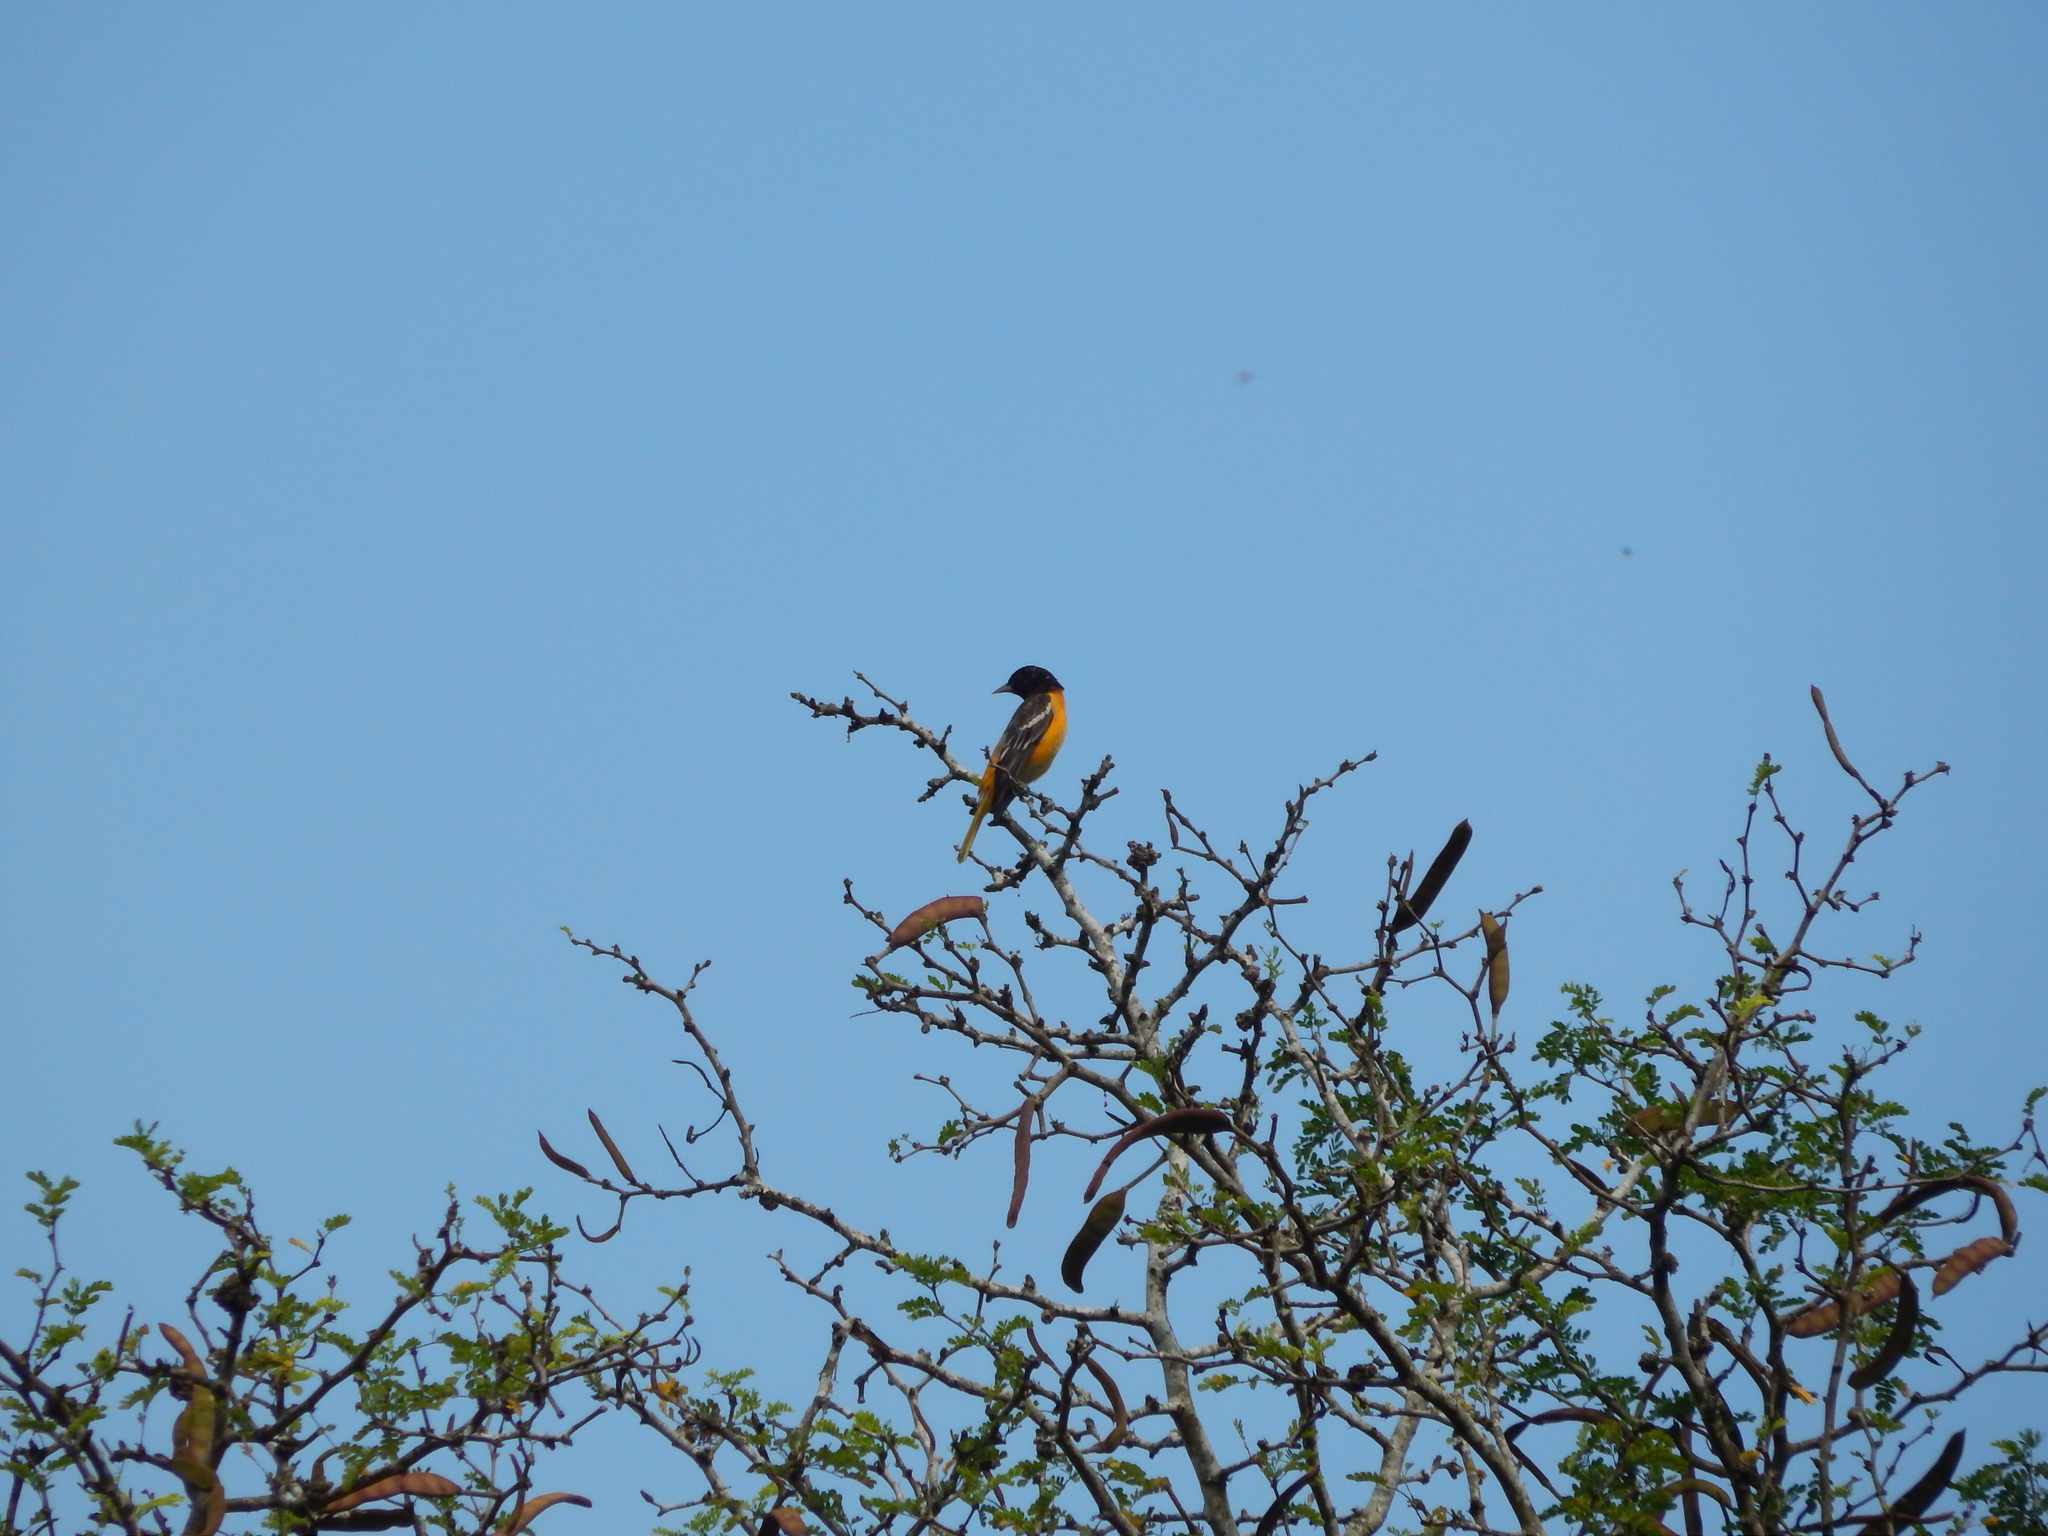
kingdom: Animalia
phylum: Chordata
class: Aves
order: Passeriformes
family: Icteridae
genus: Icterus
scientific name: Icterus galbula
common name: Baltimore oriole
